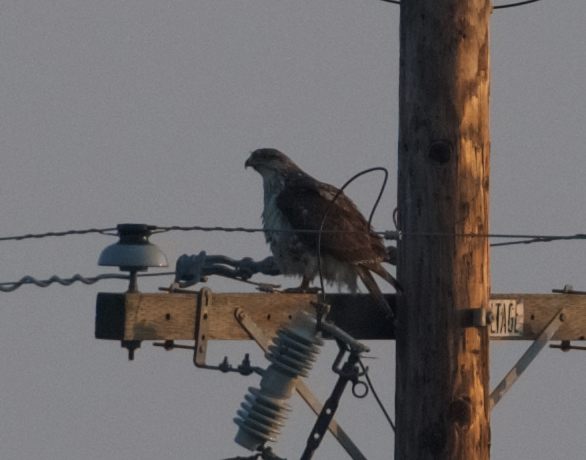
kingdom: Animalia
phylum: Chordata
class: Aves
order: Accipitriformes
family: Accipitridae
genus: Buteo
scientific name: Buteo regalis
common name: Ferruginous hawk
